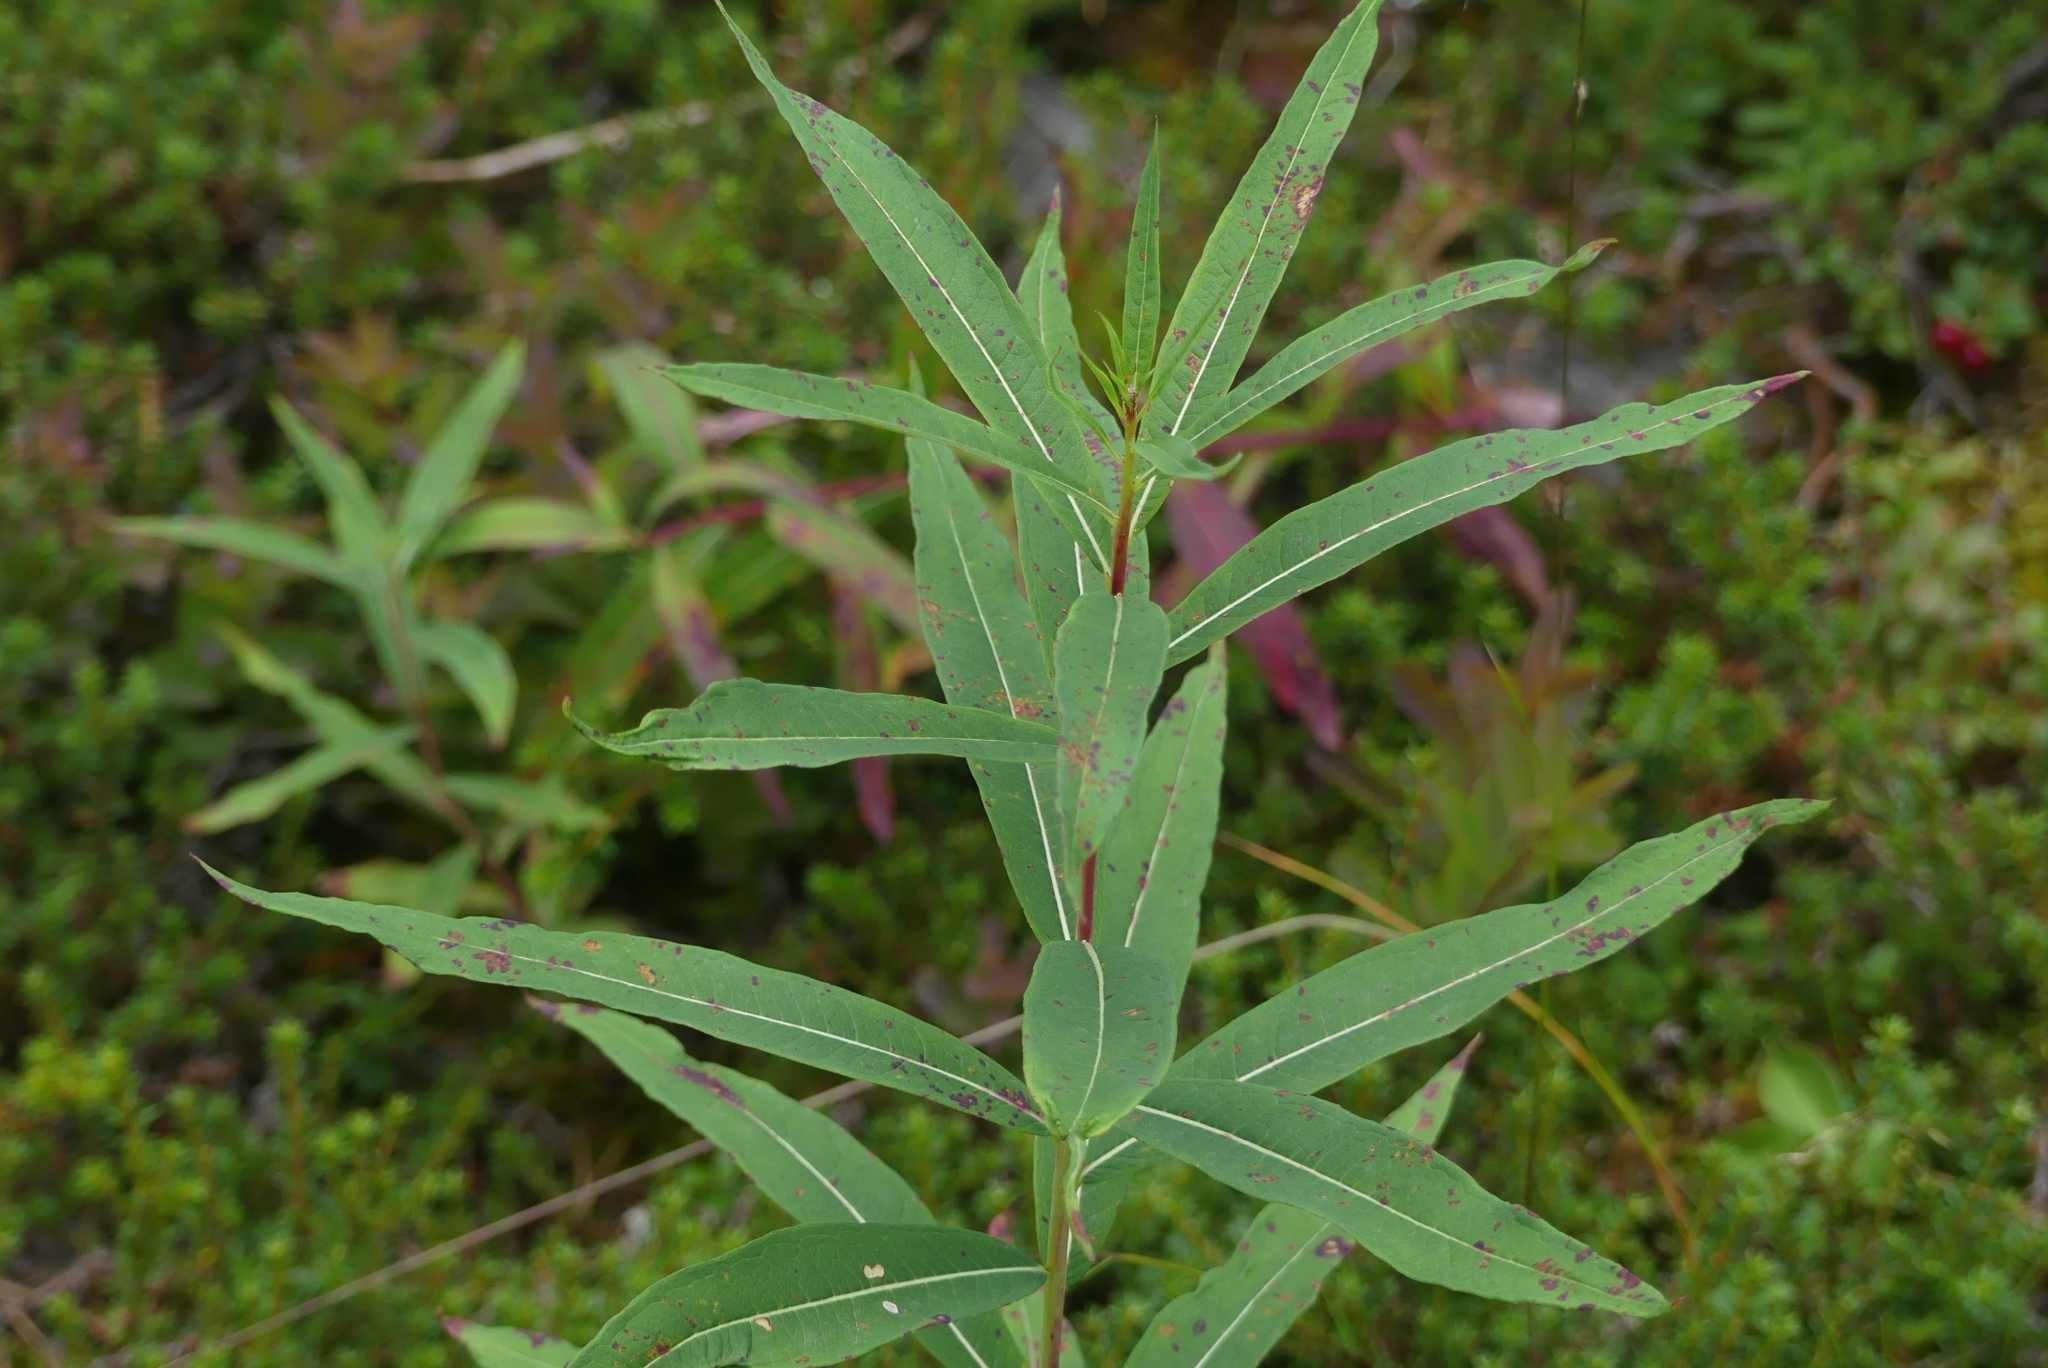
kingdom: Plantae
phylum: Tracheophyta
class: Magnoliopsida
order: Myrtales
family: Onagraceae
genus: Chamaenerion
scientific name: Chamaenerion angustifolium
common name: Fireweed
